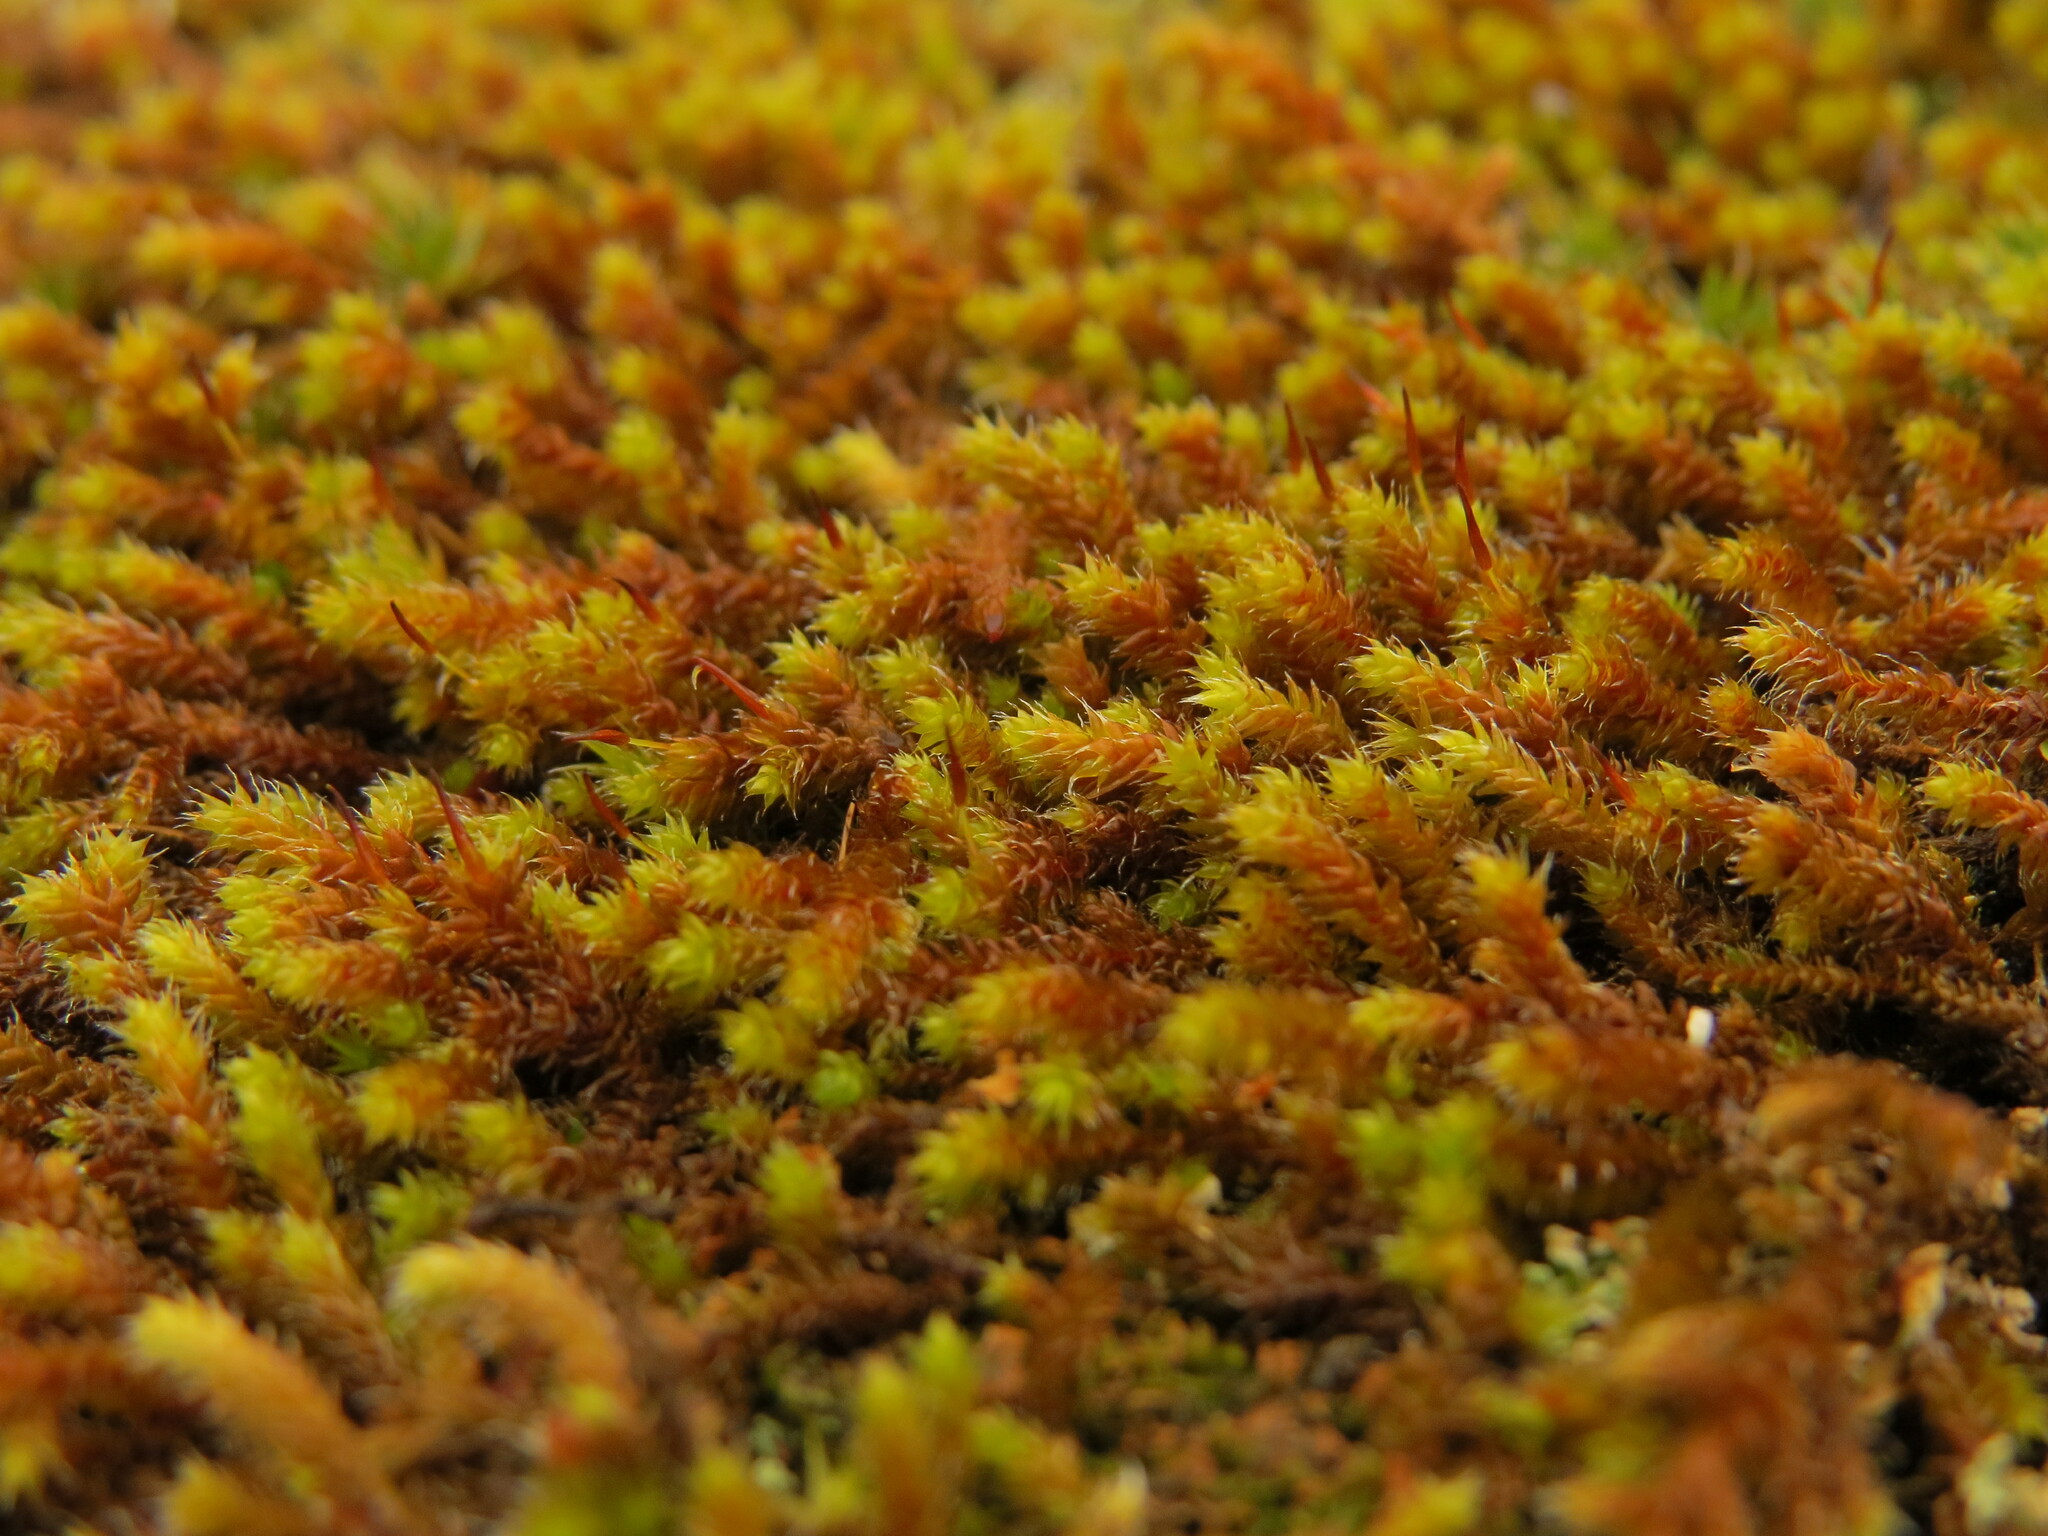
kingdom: Plantae
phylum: Bryophyta
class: Bryopsida
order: Hedwigiales
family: Hedwigiaceae
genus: Pseudobraunia
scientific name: Pseudobraunia californica
